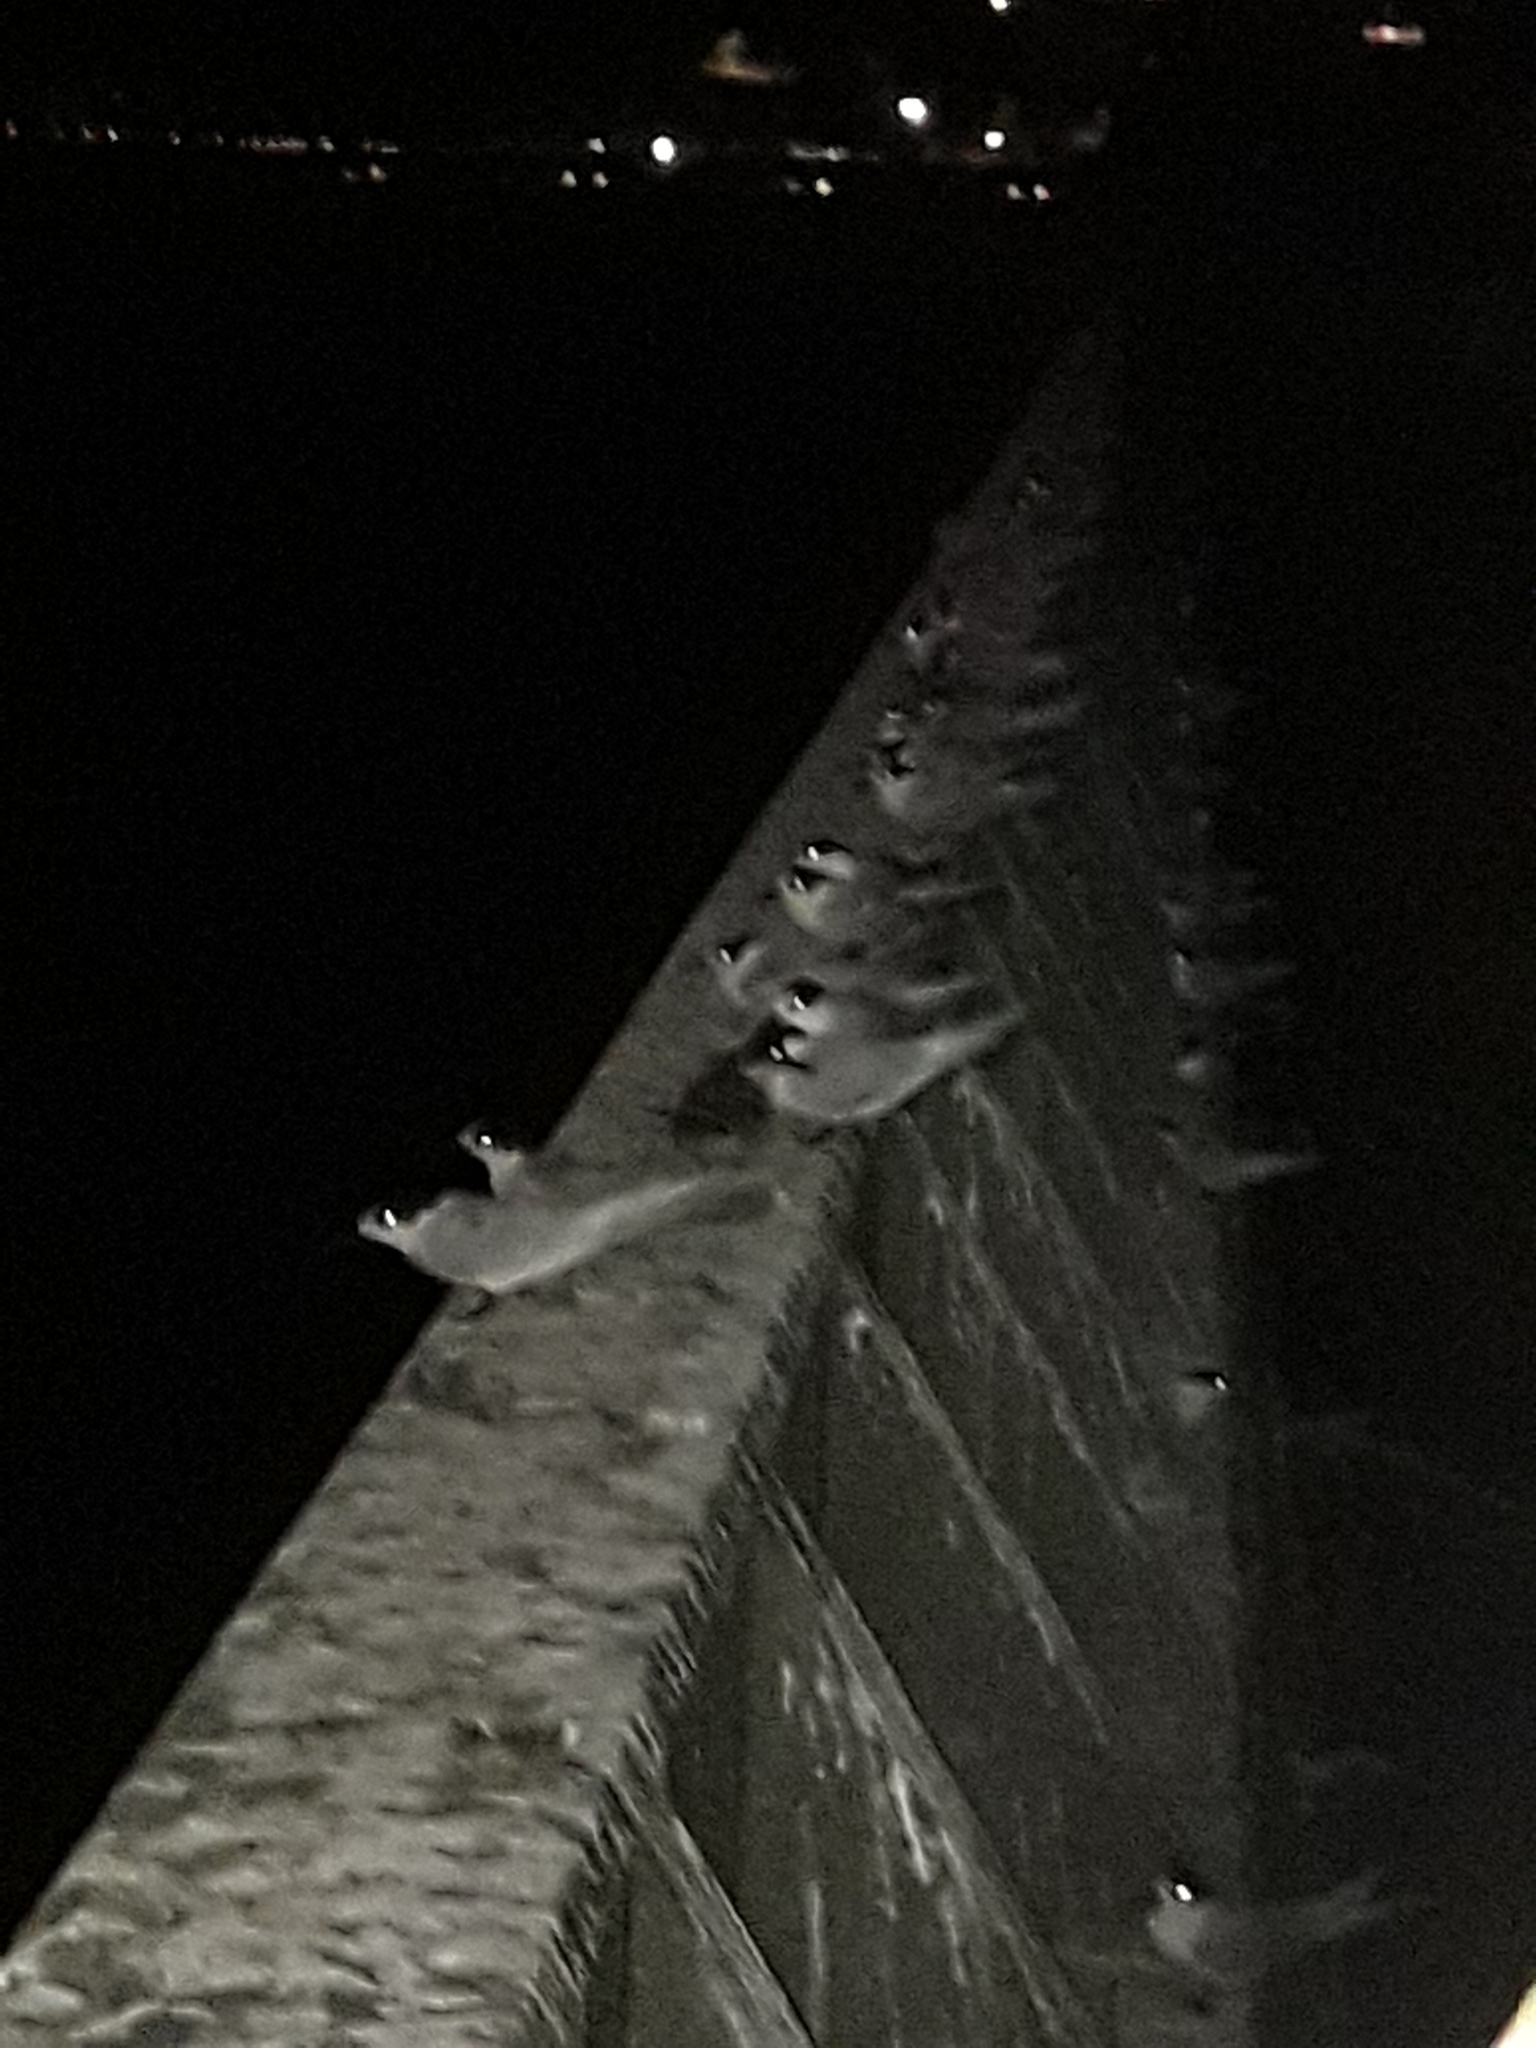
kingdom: Animalia
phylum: Chordata
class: Aves
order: Charadriiformes
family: Laridae
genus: Sterna
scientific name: Sterna striata
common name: White-fronted tern
